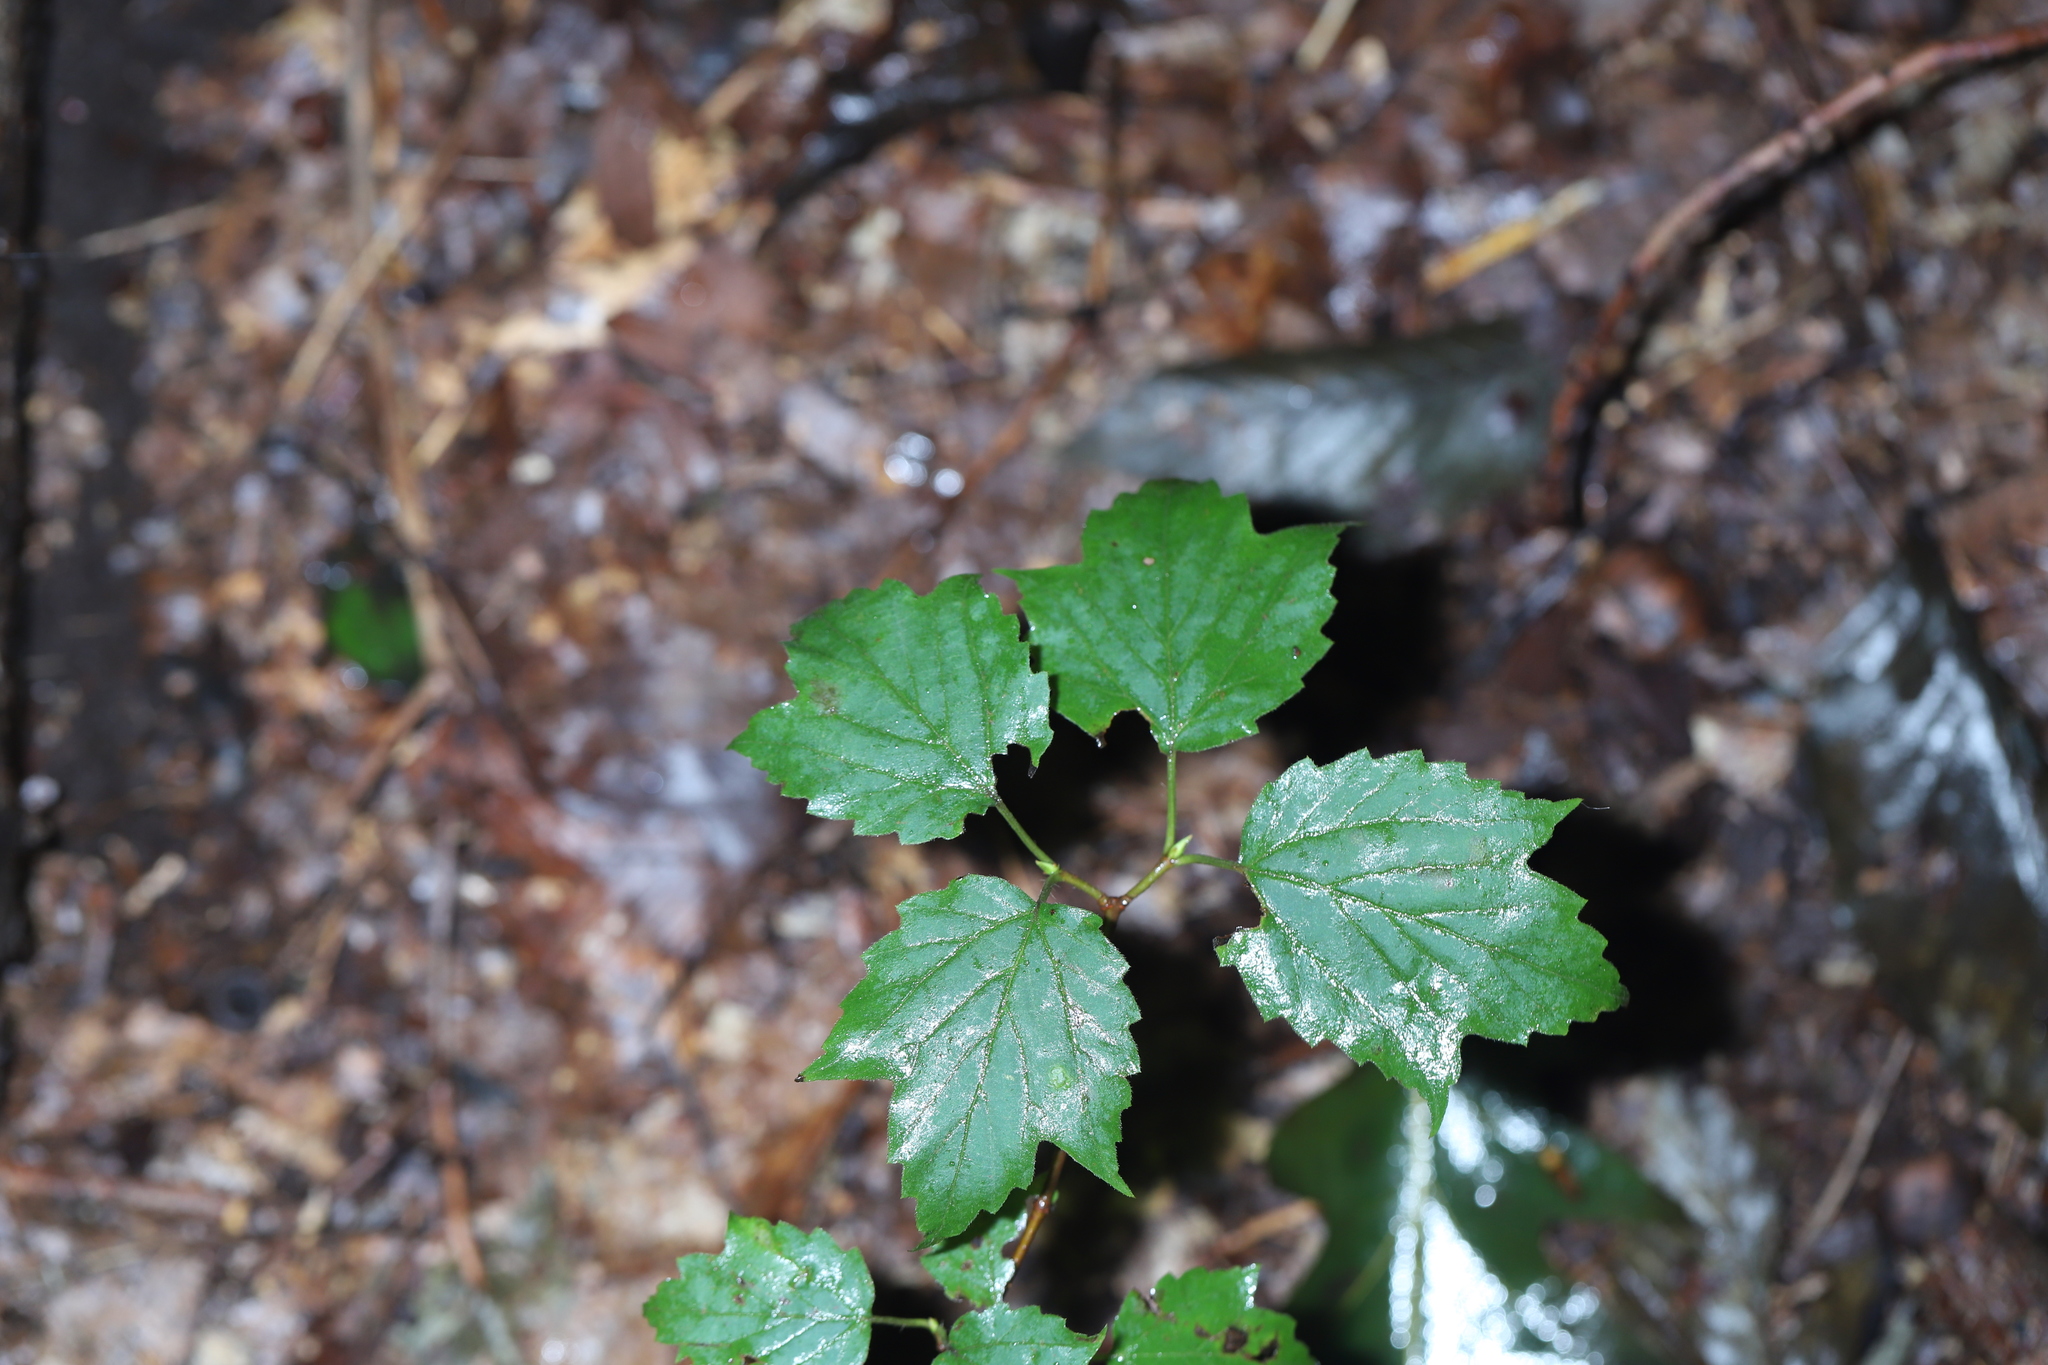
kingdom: Plantae
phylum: Tracheophyta
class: Magnoliopsida
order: Dipsacales
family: Viburnaceae
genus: Viburnum
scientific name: Viburnum acerifolium
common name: Dockmackie
